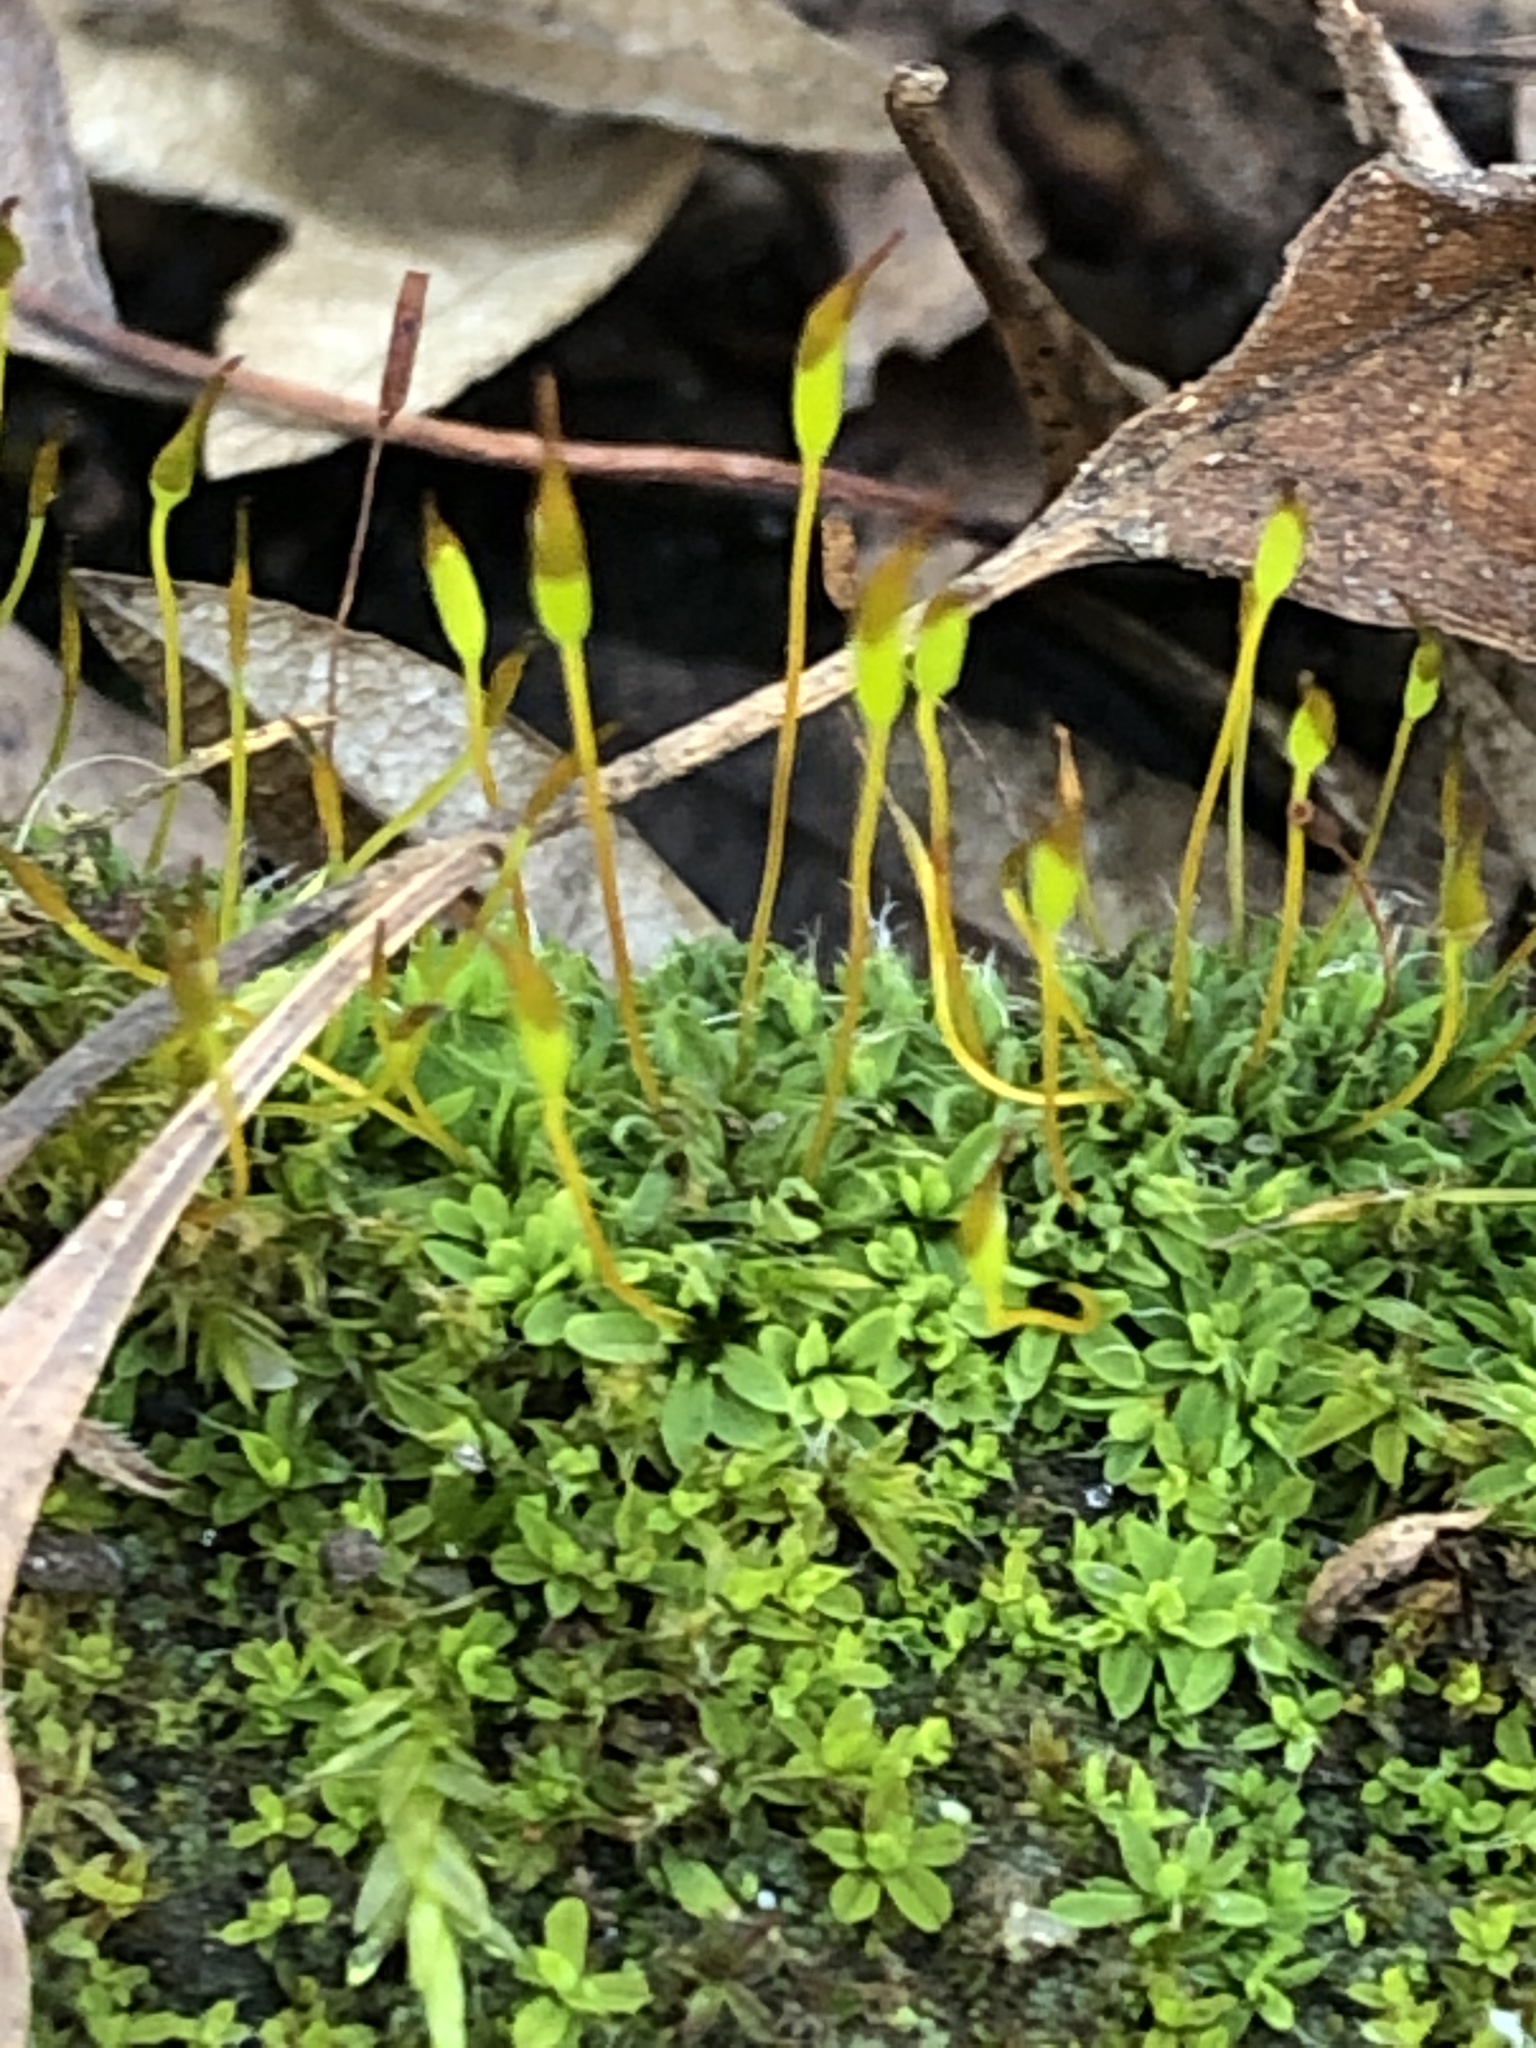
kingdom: Plantae
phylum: Bryophyta
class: Bryopsida
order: Pottiales
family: Pottiaceae
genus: Tortula
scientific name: Tortula muralis
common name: Wall screw-moss
